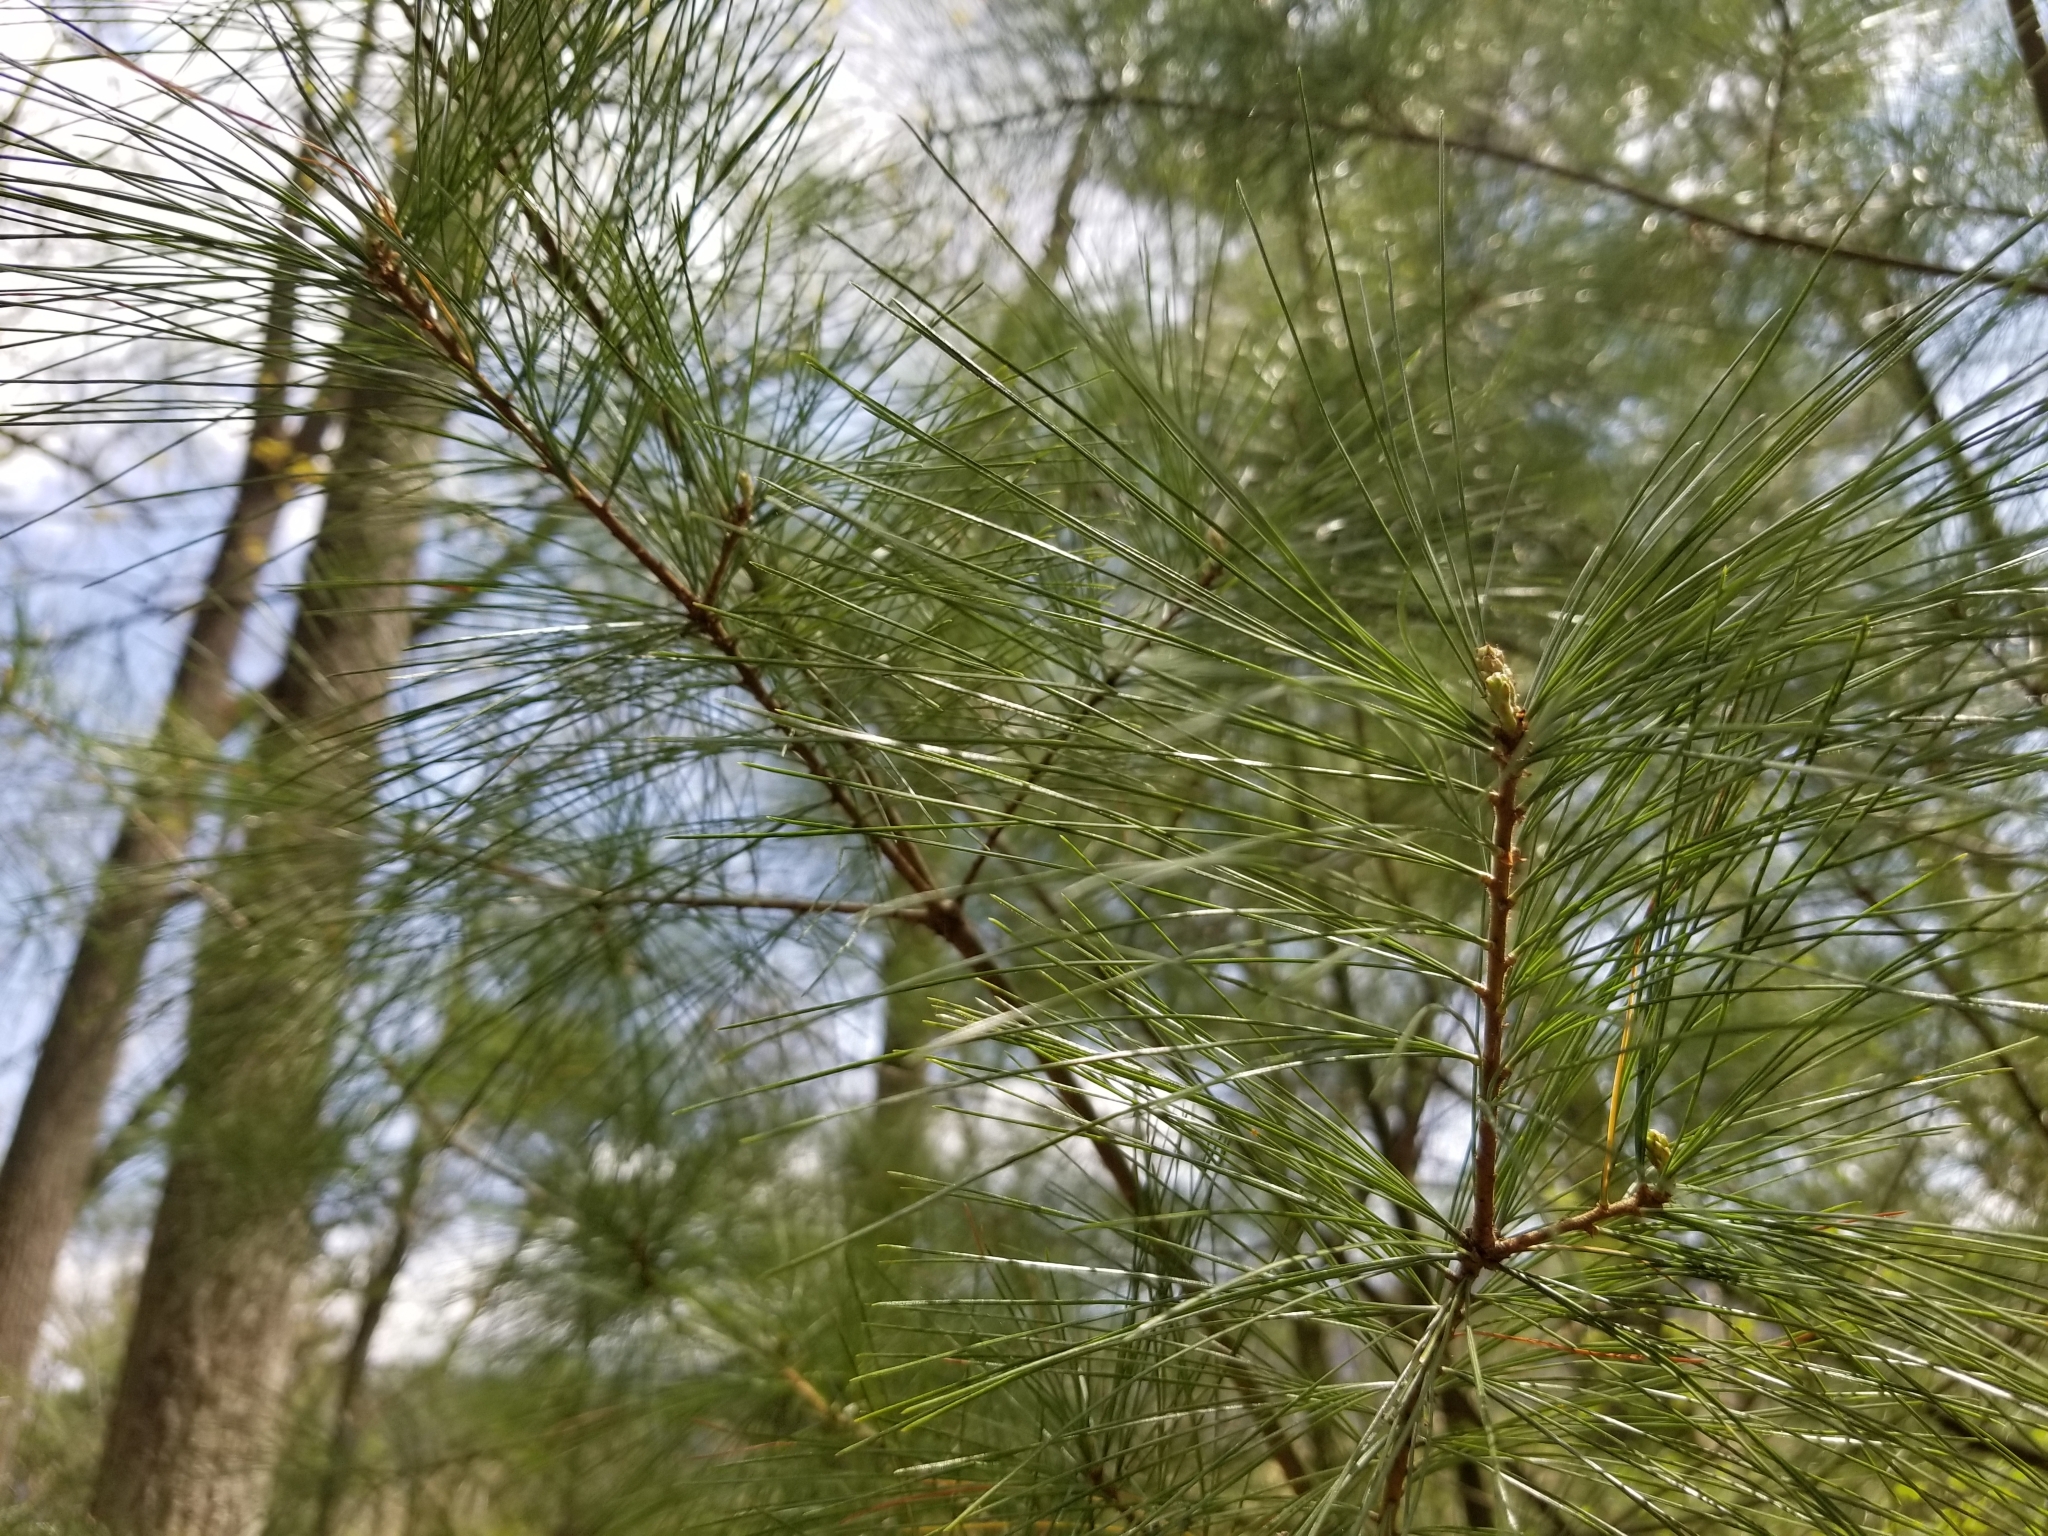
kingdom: Plantae
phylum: Tracheophyta
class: Pinopsida
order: Pinales
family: Pinaceae
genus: Pinus
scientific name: Pinus strobus
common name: Weymouth pine
